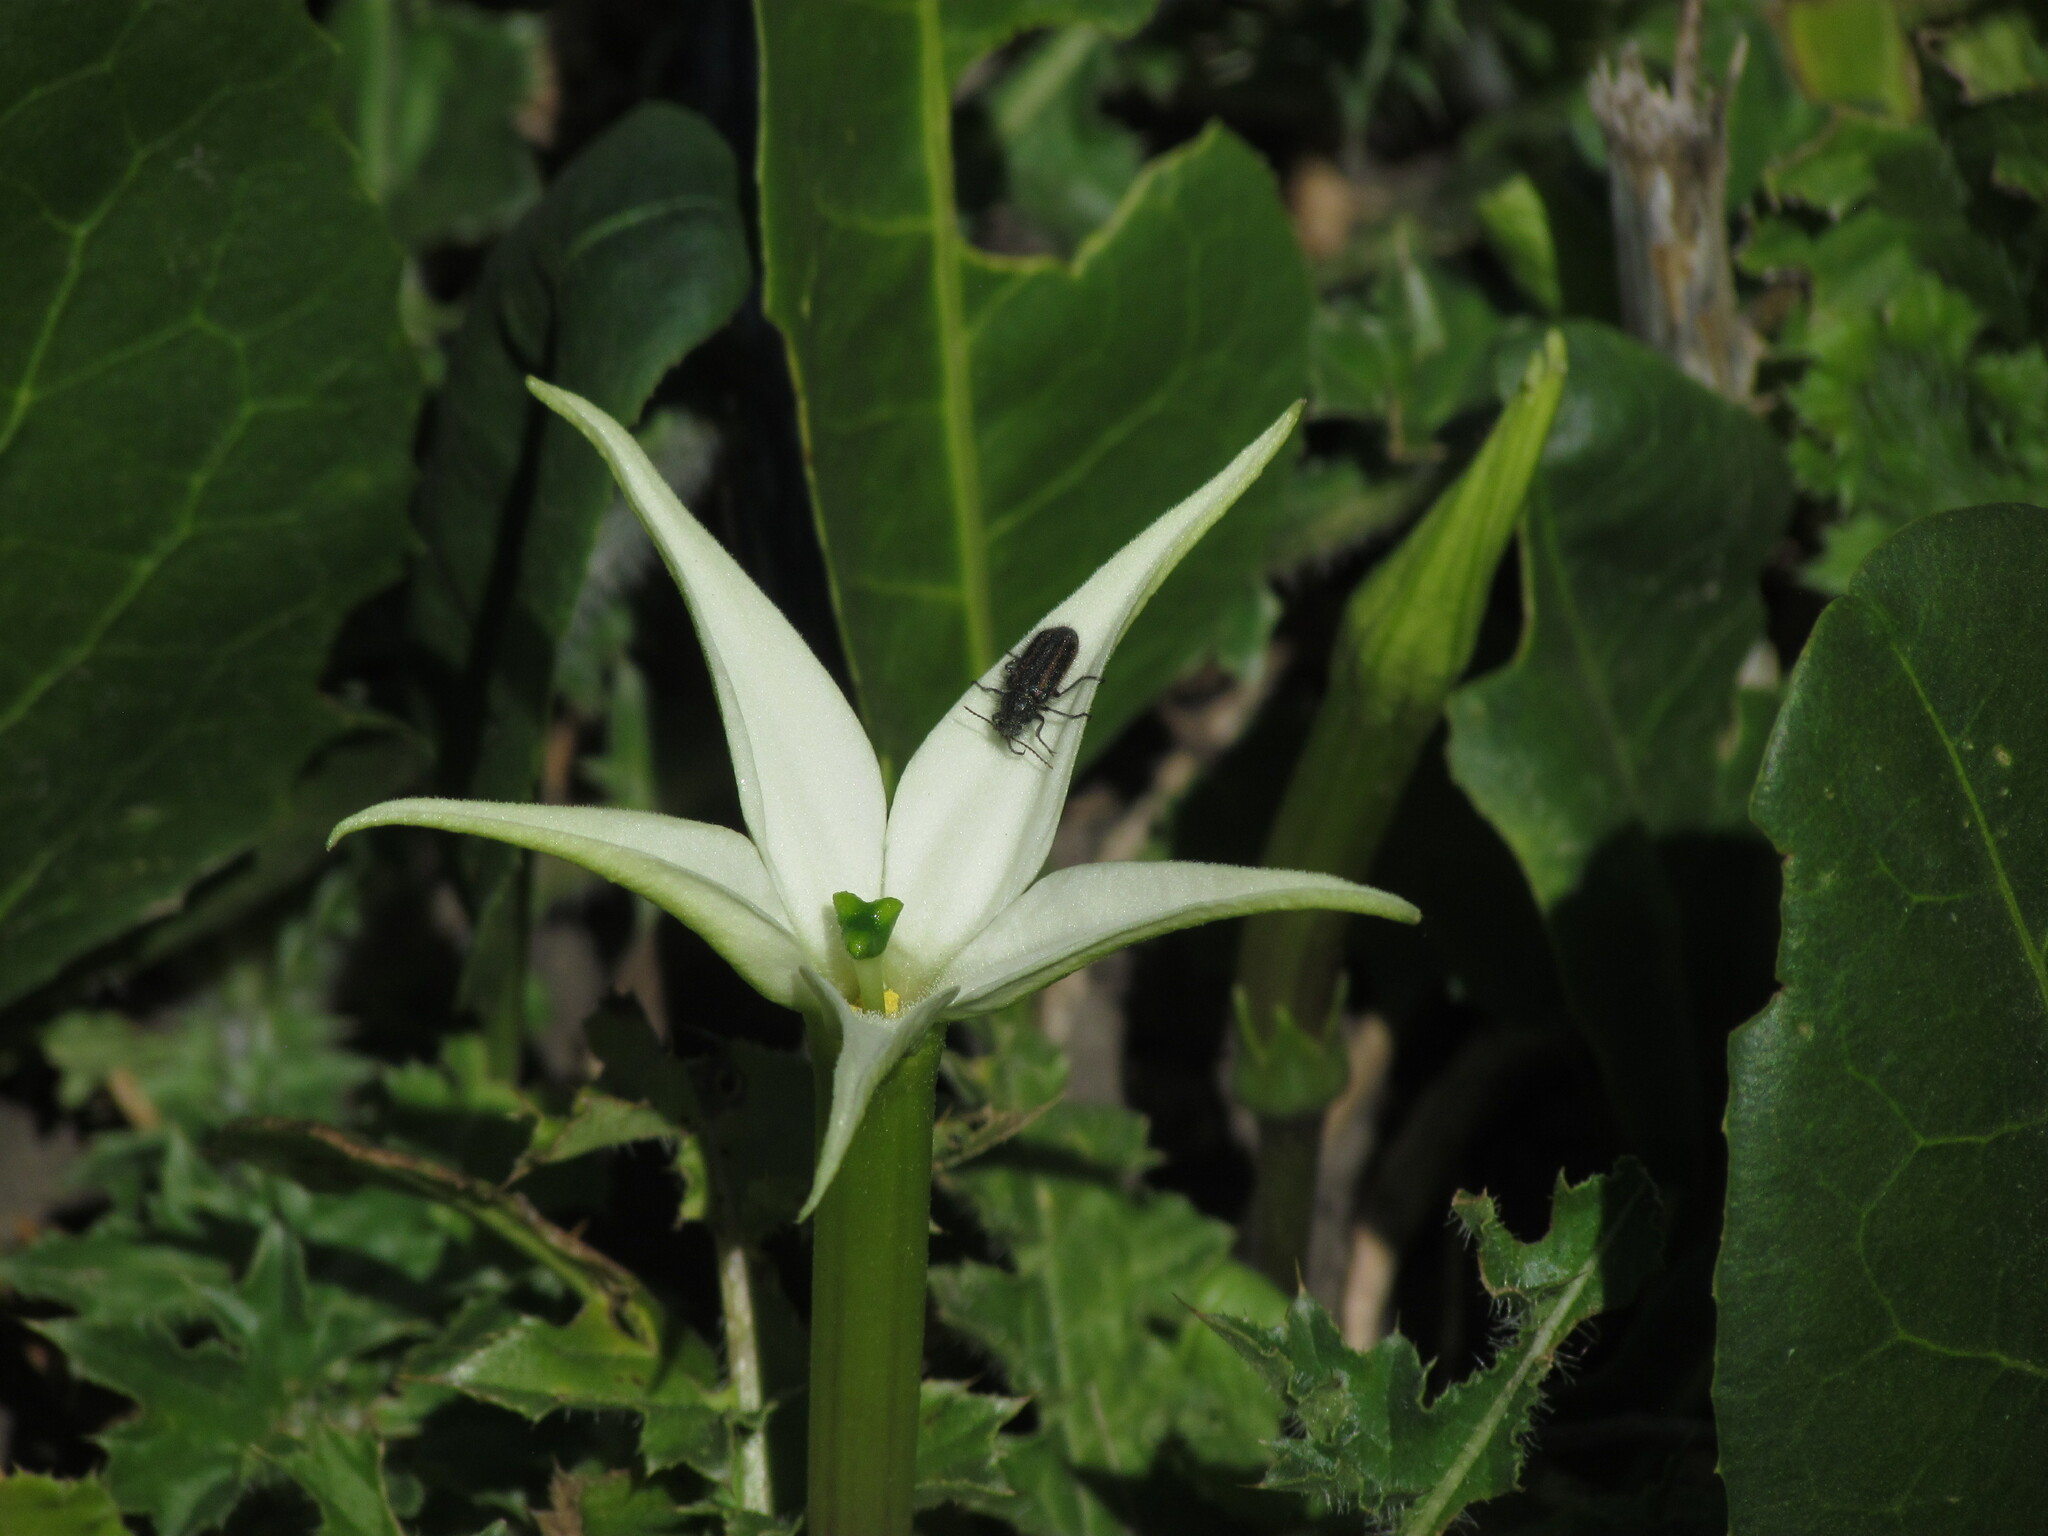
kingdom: Plantae
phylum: Tracheophyta
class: Magnoliopsida
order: Solanales
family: Solanaceae
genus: Jaborosa
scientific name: Jaborosa integrifolia
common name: Springblossom
